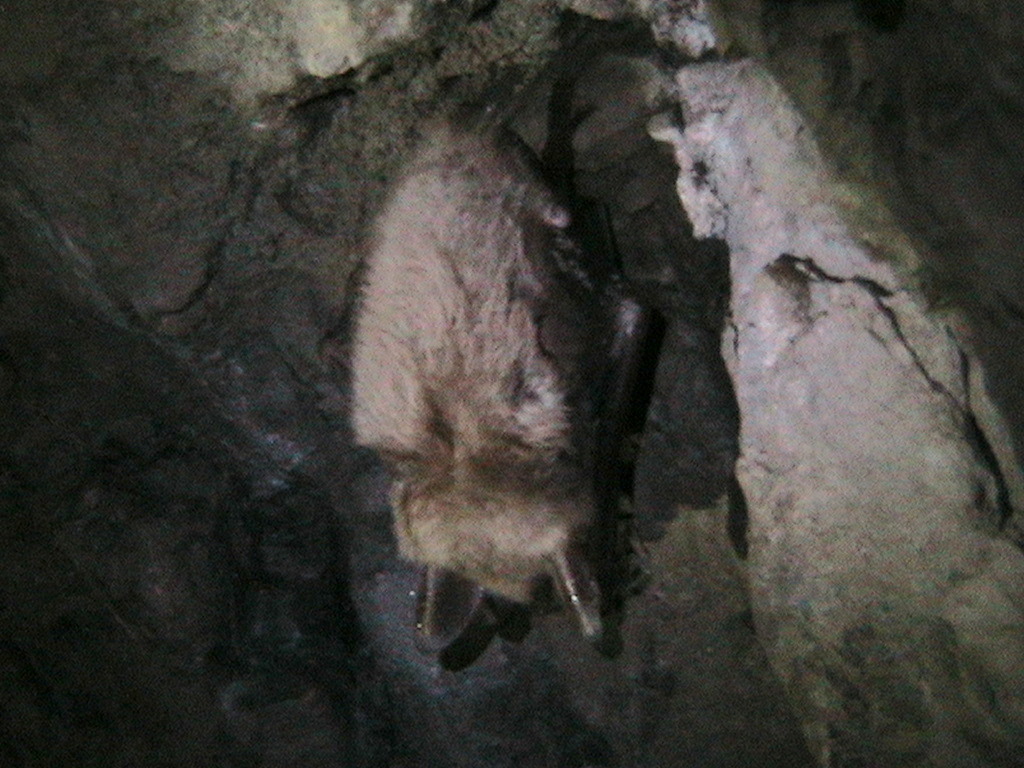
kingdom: Animalia
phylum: Chordata
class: Mammalia
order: Chiroptera
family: Vespertilionidae
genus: Myotis
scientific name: Myotis myotis
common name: Greater mouse-eared bat
